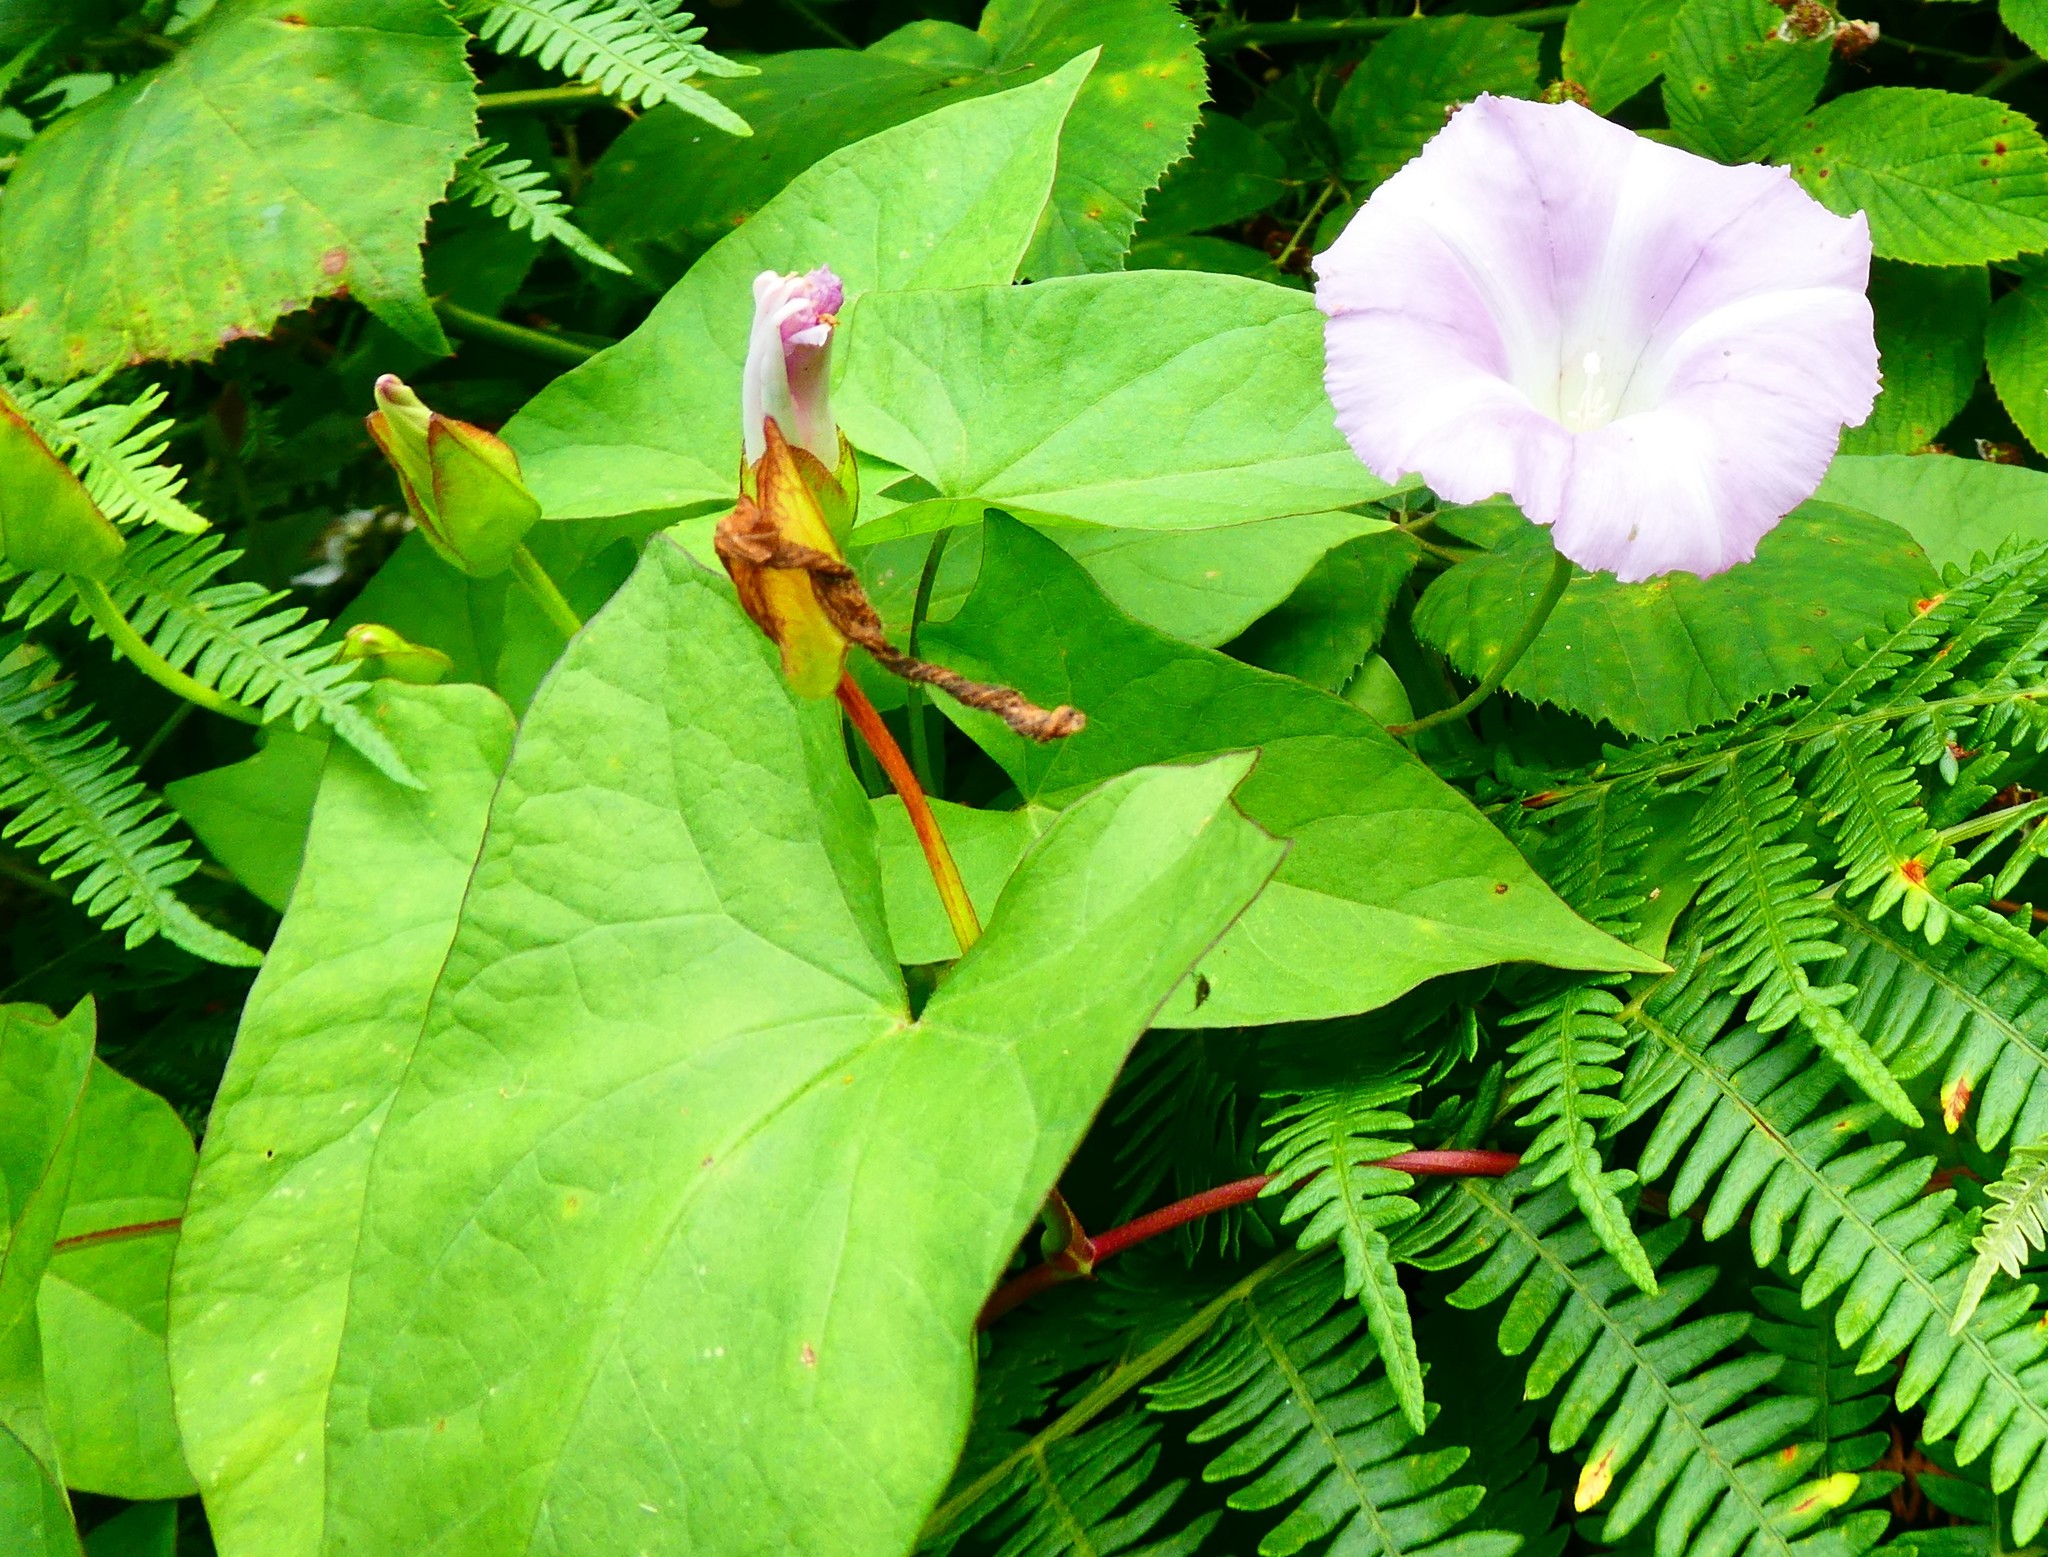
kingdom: Plantae
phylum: Tracheophyta
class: Magnoliopsida
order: Solanales
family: Convolvulaceae
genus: Calystegia
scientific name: Calystegia sepium
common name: Hedge bindweed
